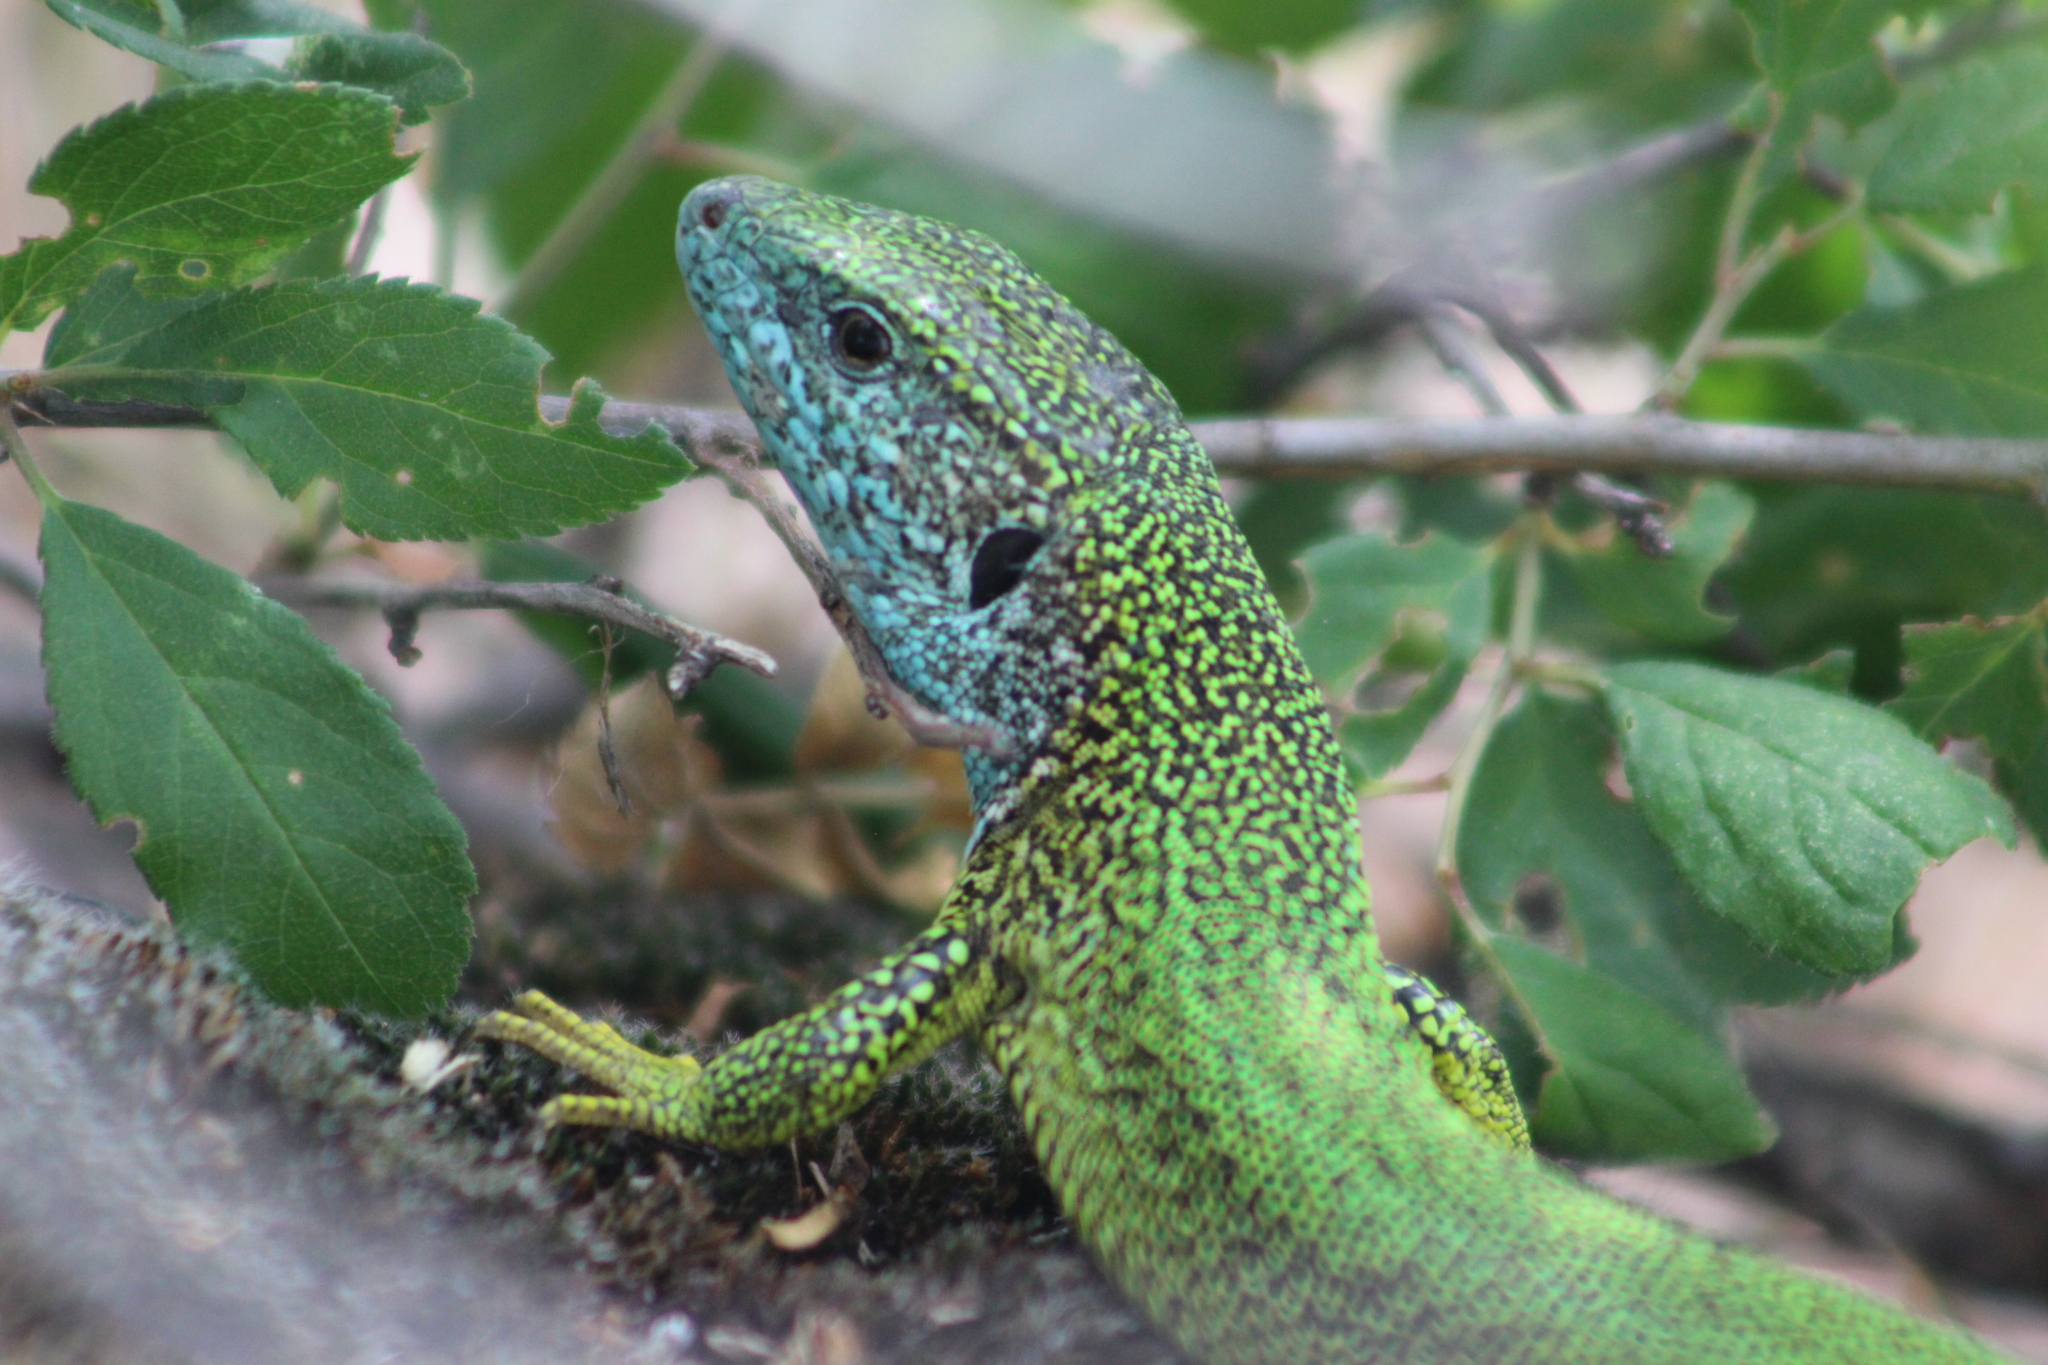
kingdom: Animalia
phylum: Chordata
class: Squamata
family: Lacertidae
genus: Lacerta
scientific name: Lacerta viridis
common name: European green lizard
